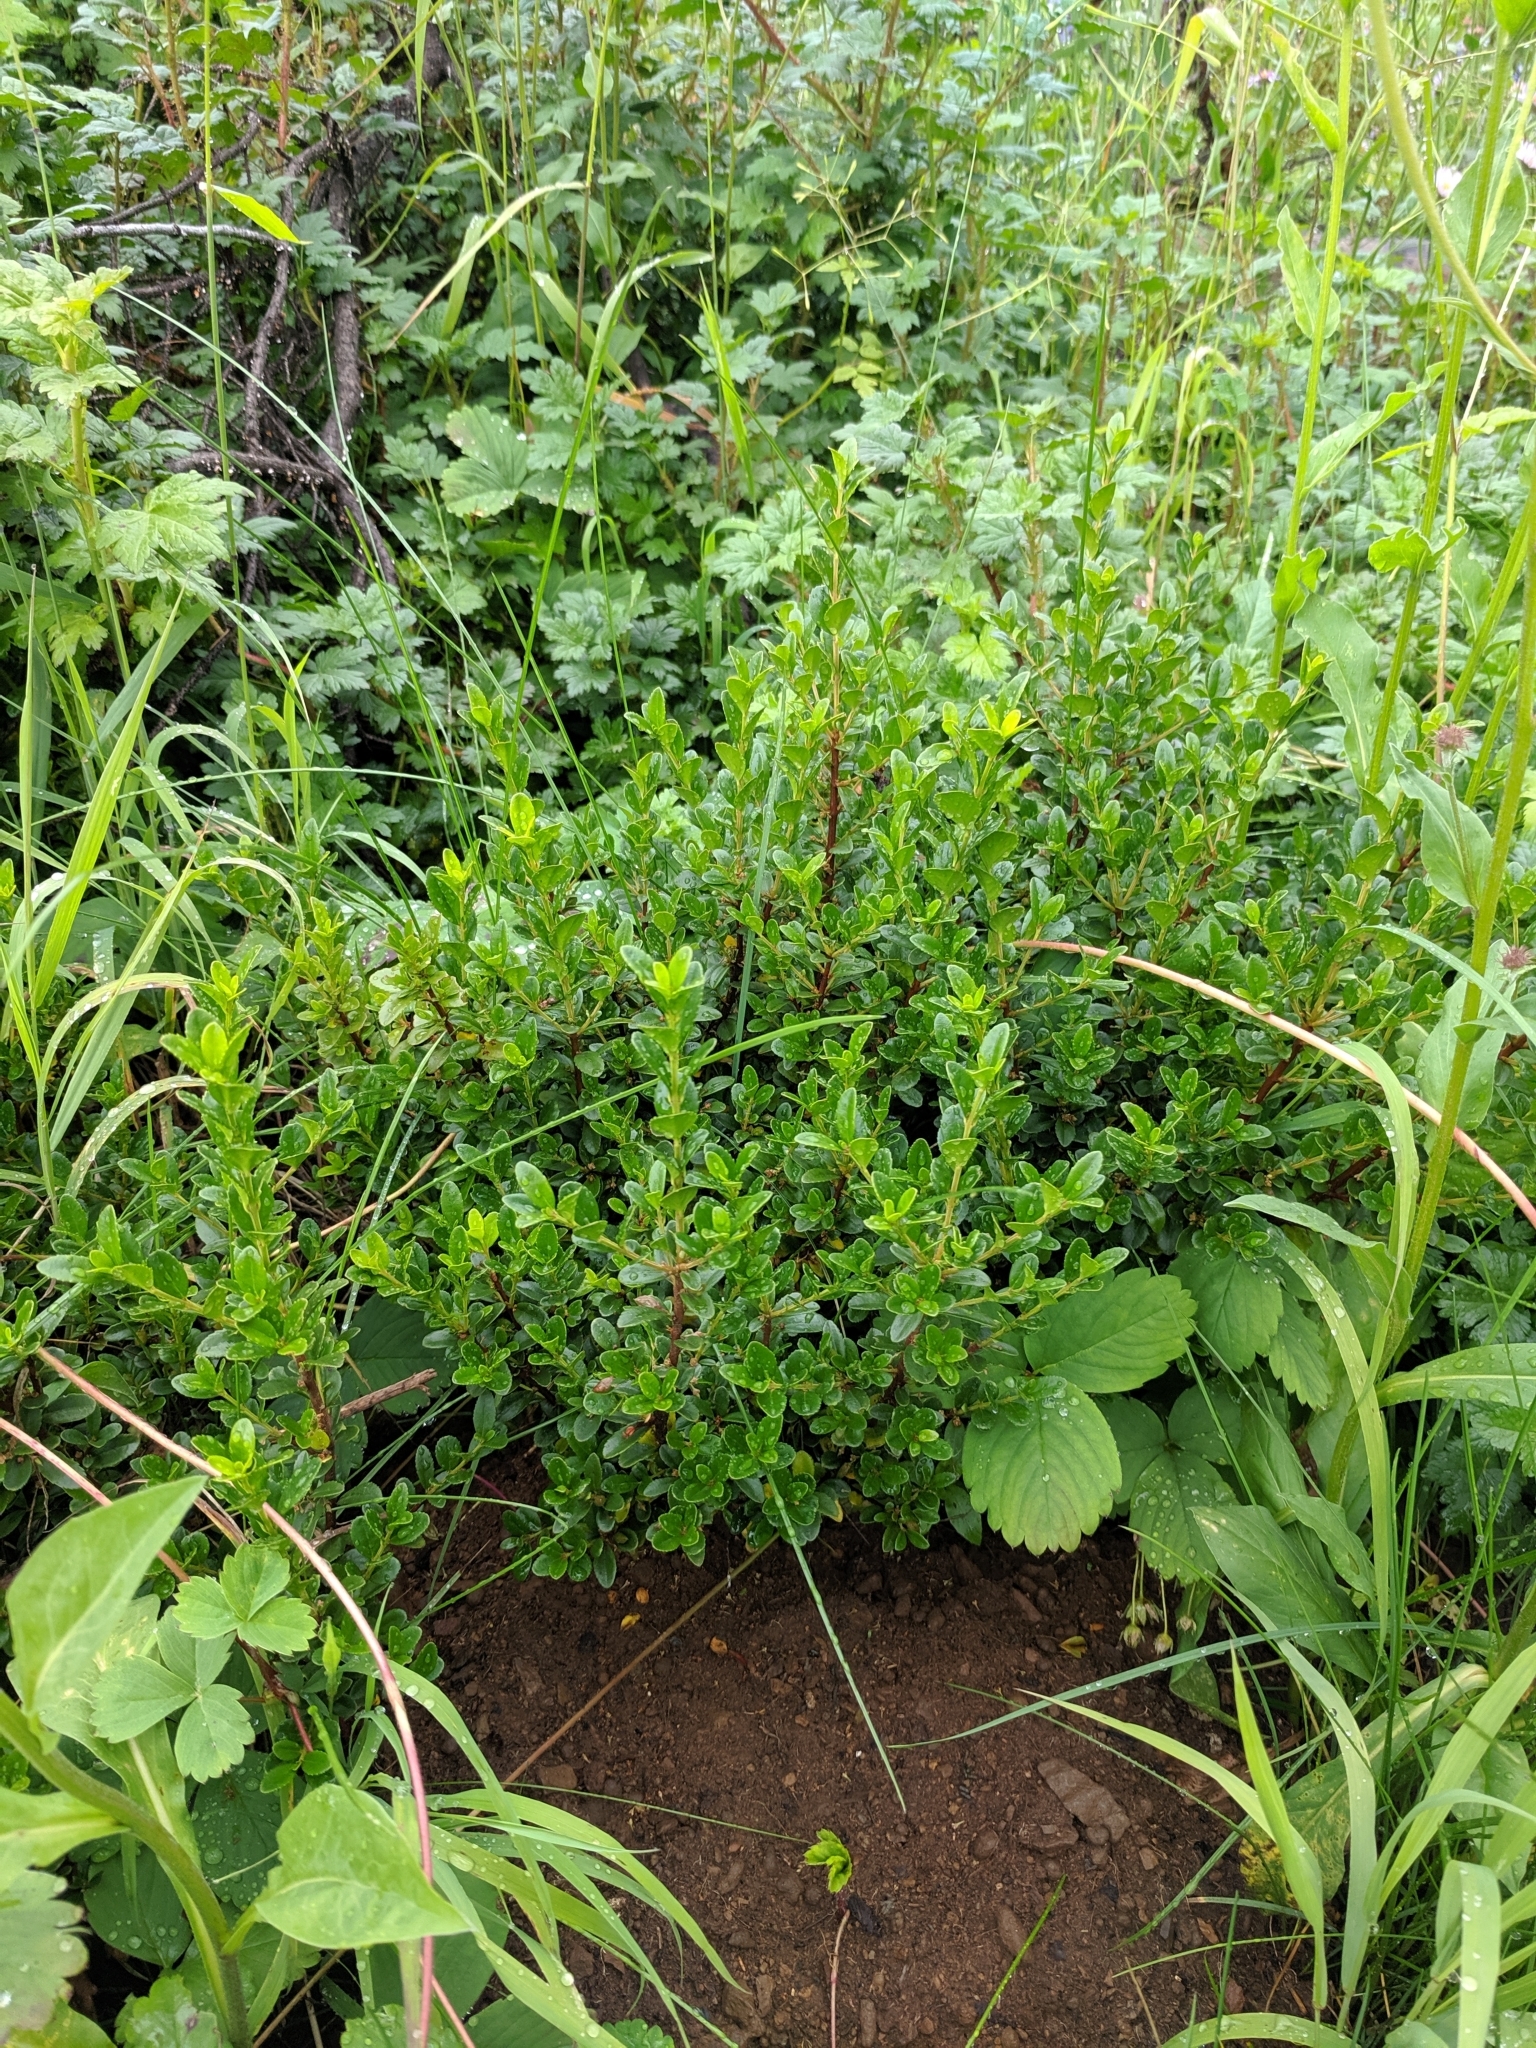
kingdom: Plantae
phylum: Tracheophyta
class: Magnoliopsida
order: Celastrales
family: Celastraceae
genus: Paxistima
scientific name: Paxistima myrsinites
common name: Mountain-lover
